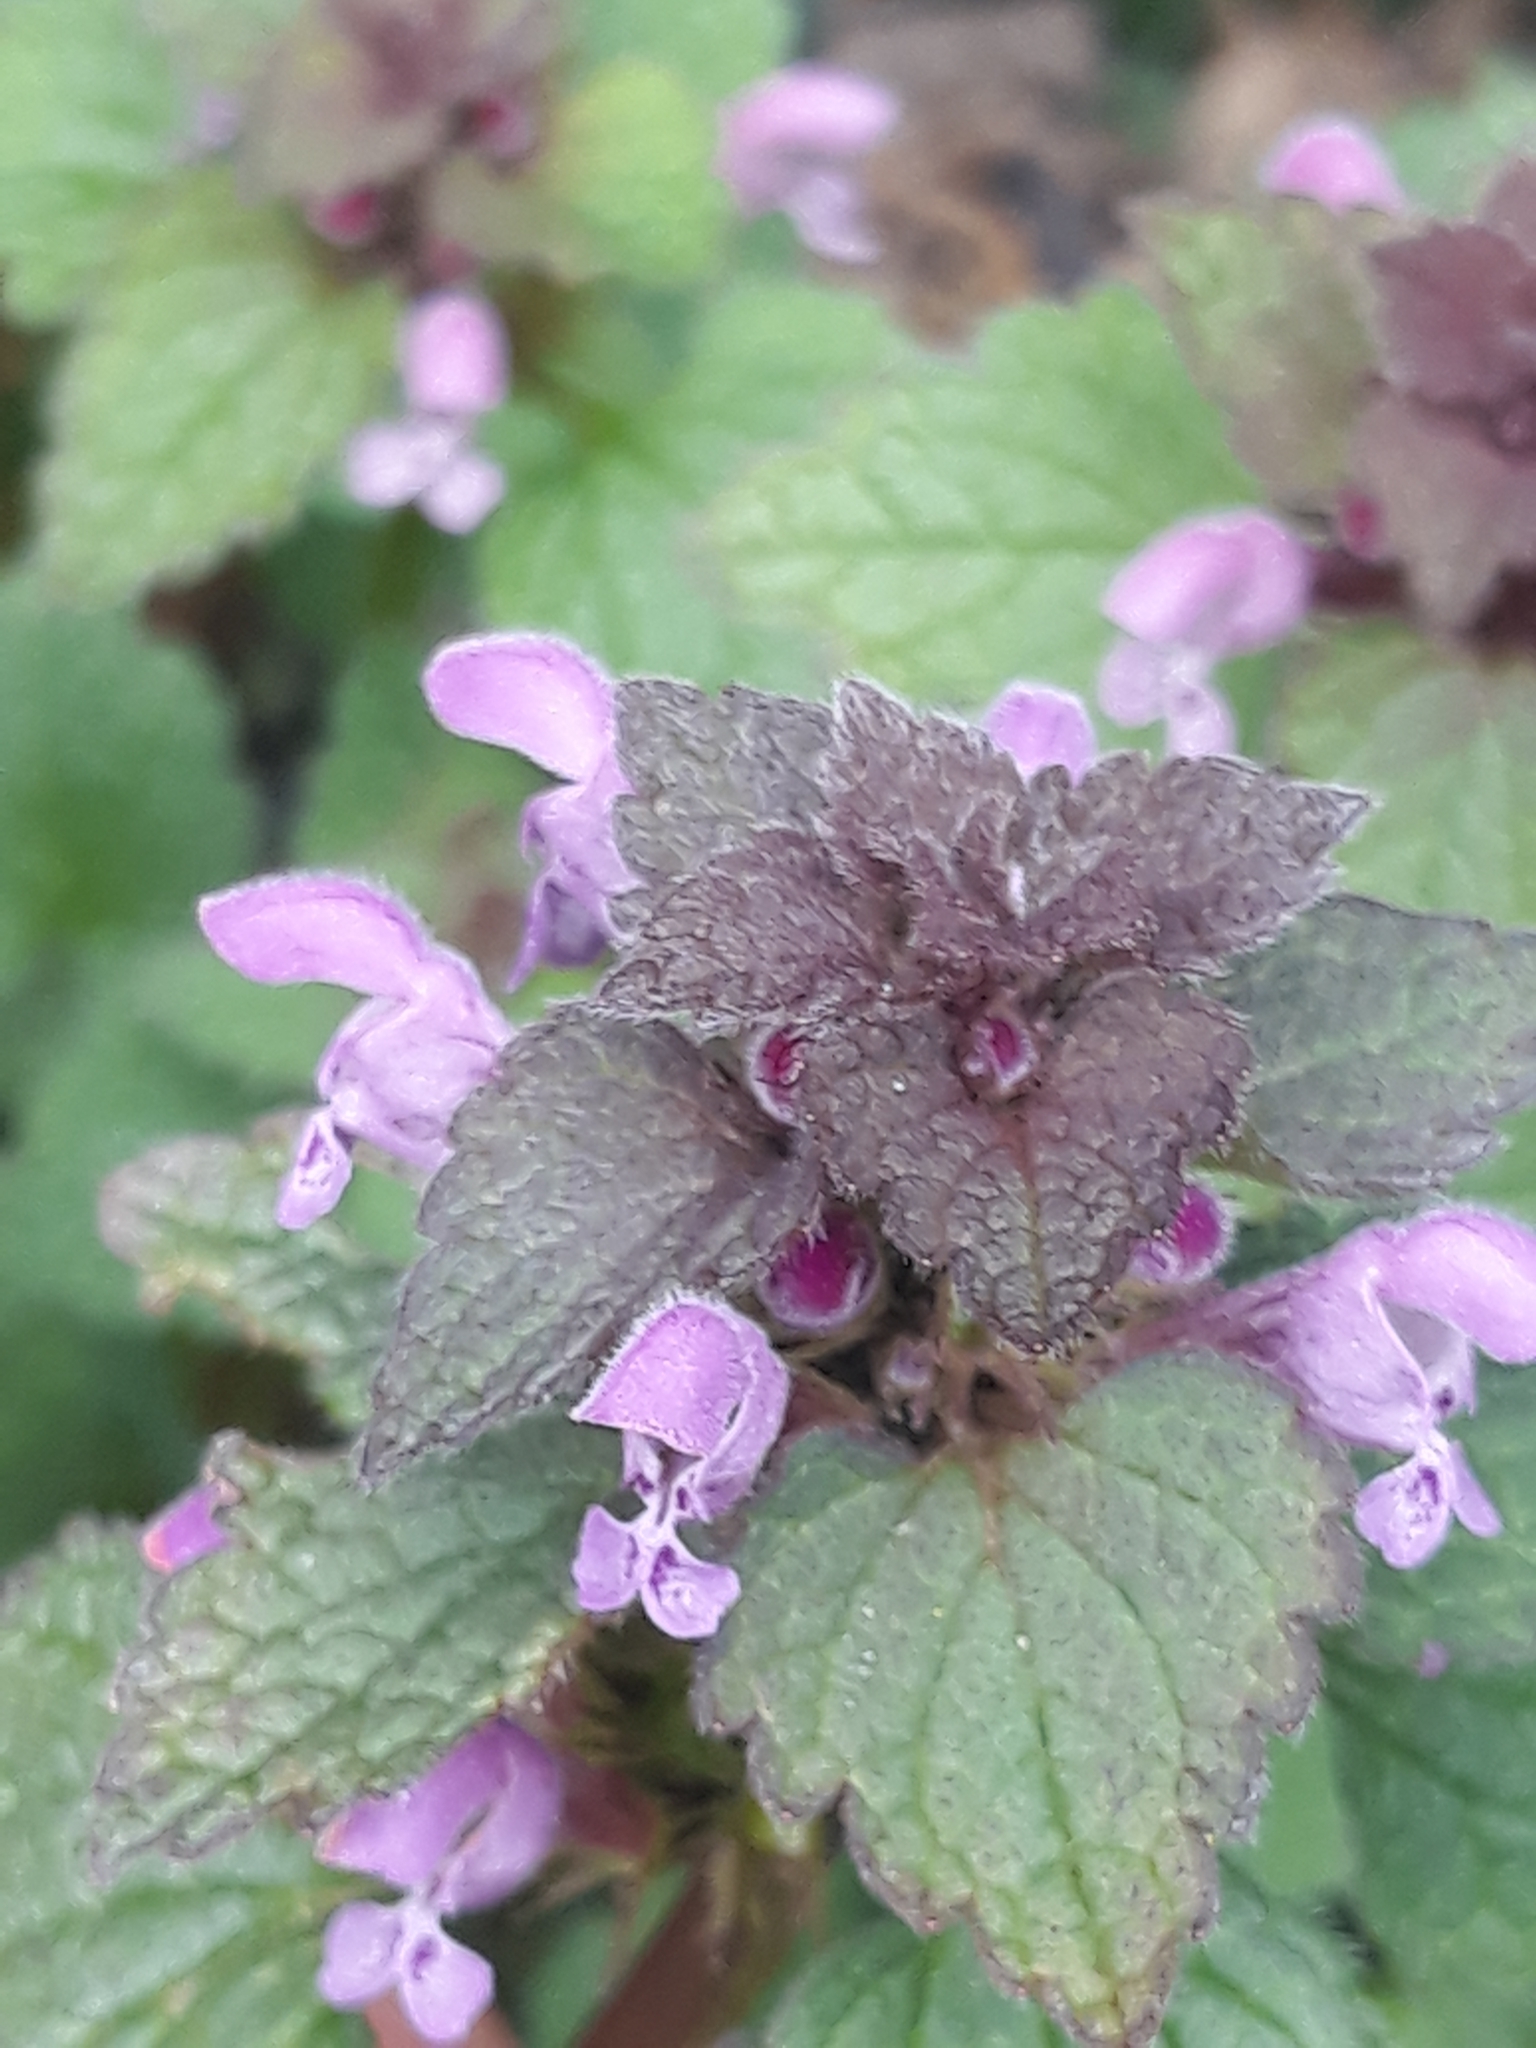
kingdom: Plantae
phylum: Tracheophyta
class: Magnoliopsida
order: Lamiales
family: Lamiaceae
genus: Lamium
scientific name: Lamium purpureum
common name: Red dead-nettle
